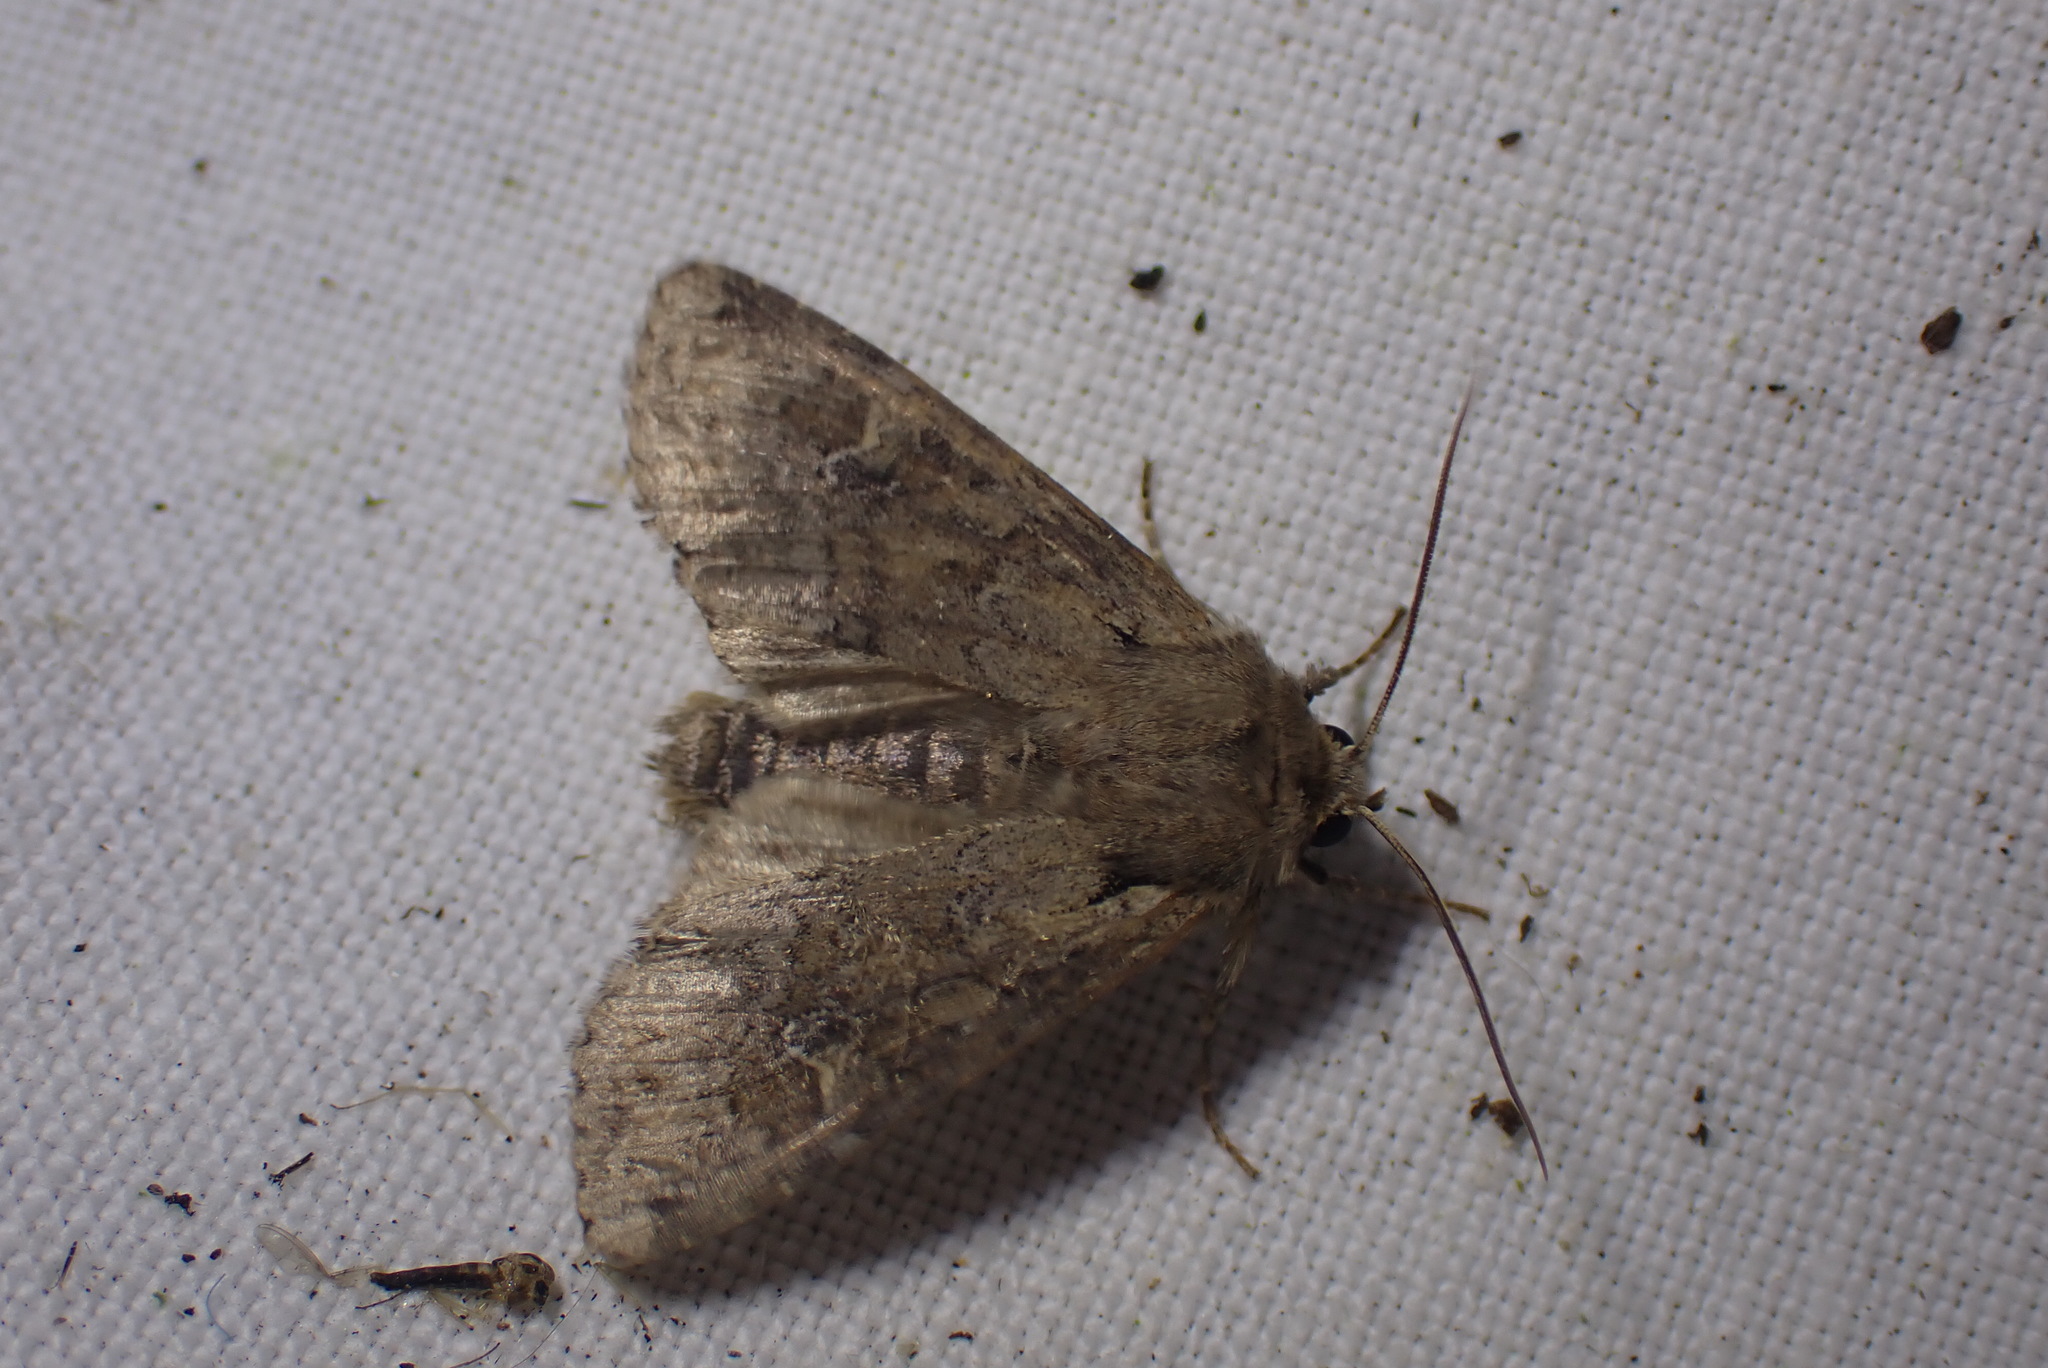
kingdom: Animalia
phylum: Arthropoda
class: Insecta
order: Lepidoptera
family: Noctuidae
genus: Apamea
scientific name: Apamea sordens
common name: Rustic shoulder-knot
